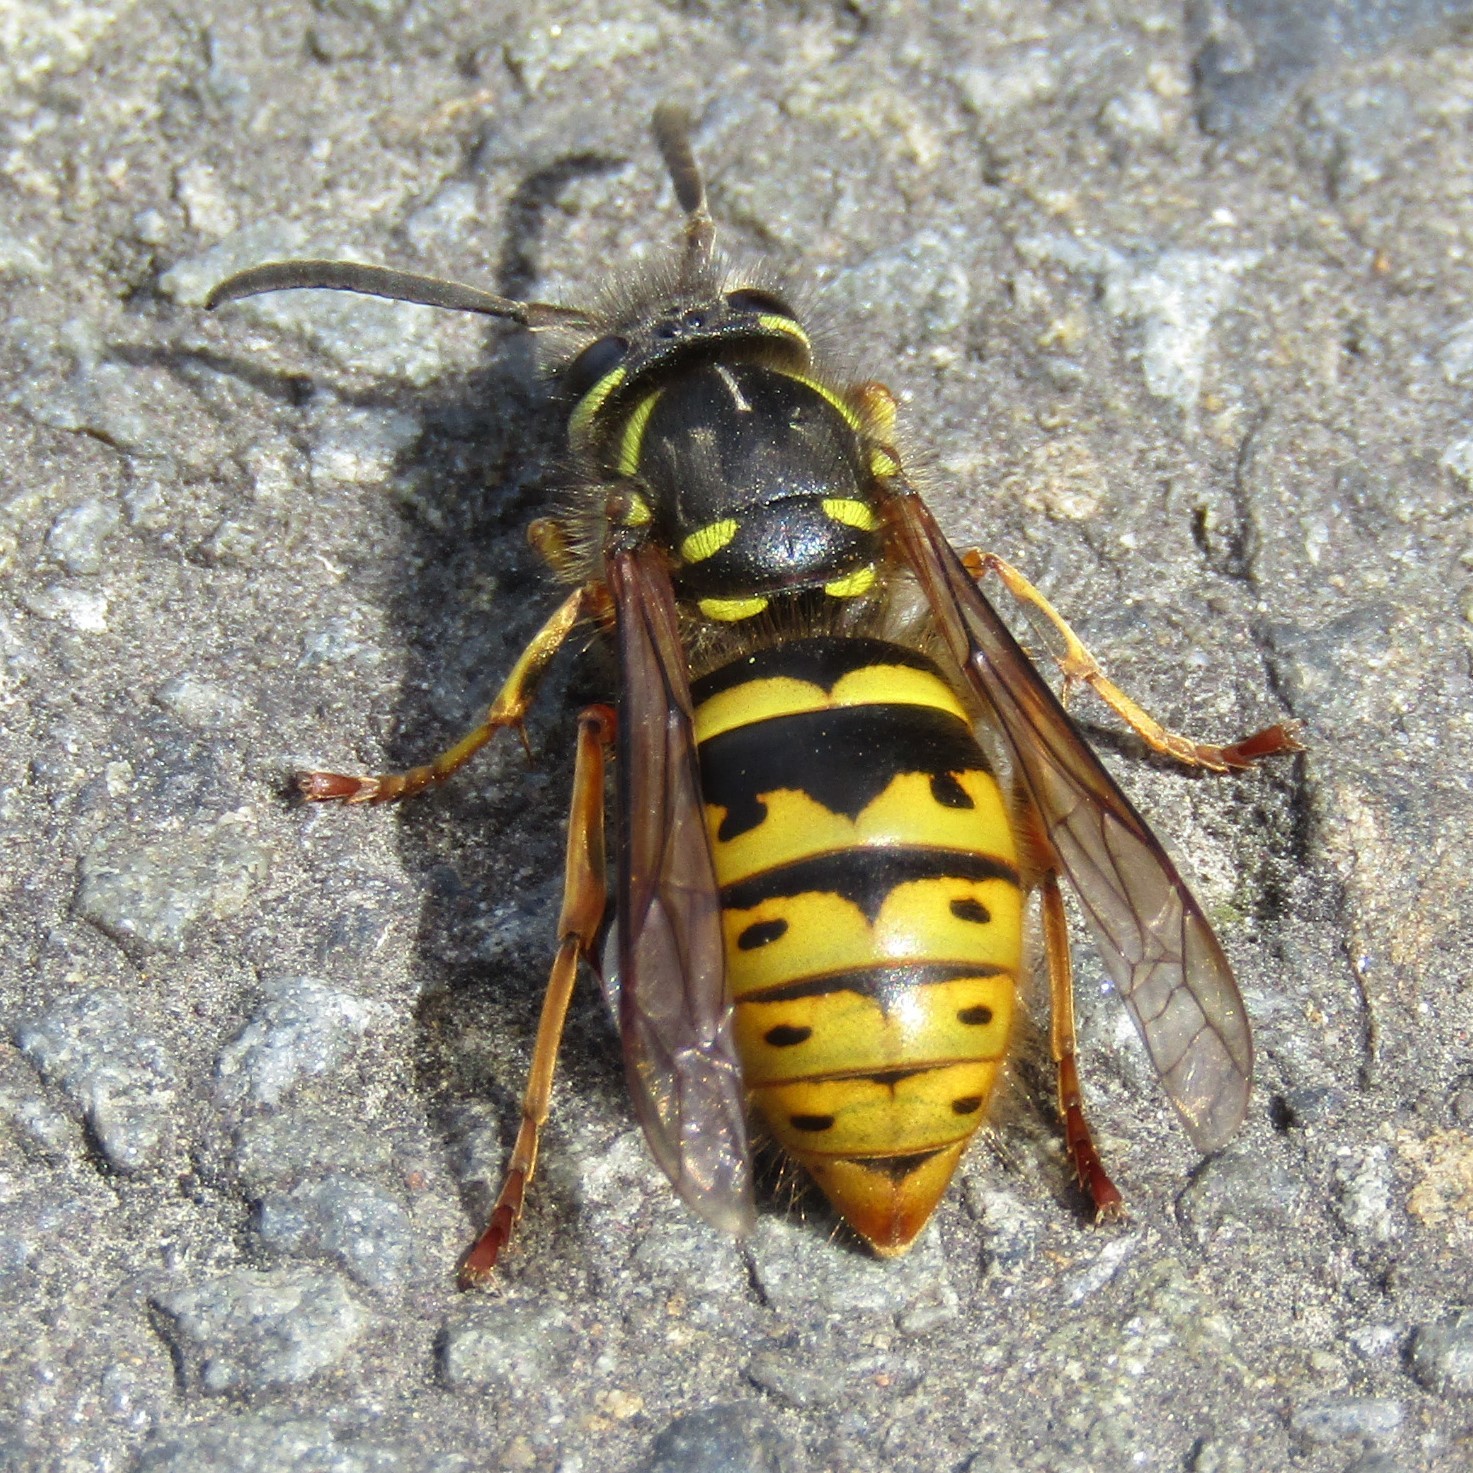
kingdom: Animalia
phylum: Arthropoda
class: Insecta
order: Hymenoptera
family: Vespidae
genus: Vespula
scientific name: Vespula vulgaris
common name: Common wasp
